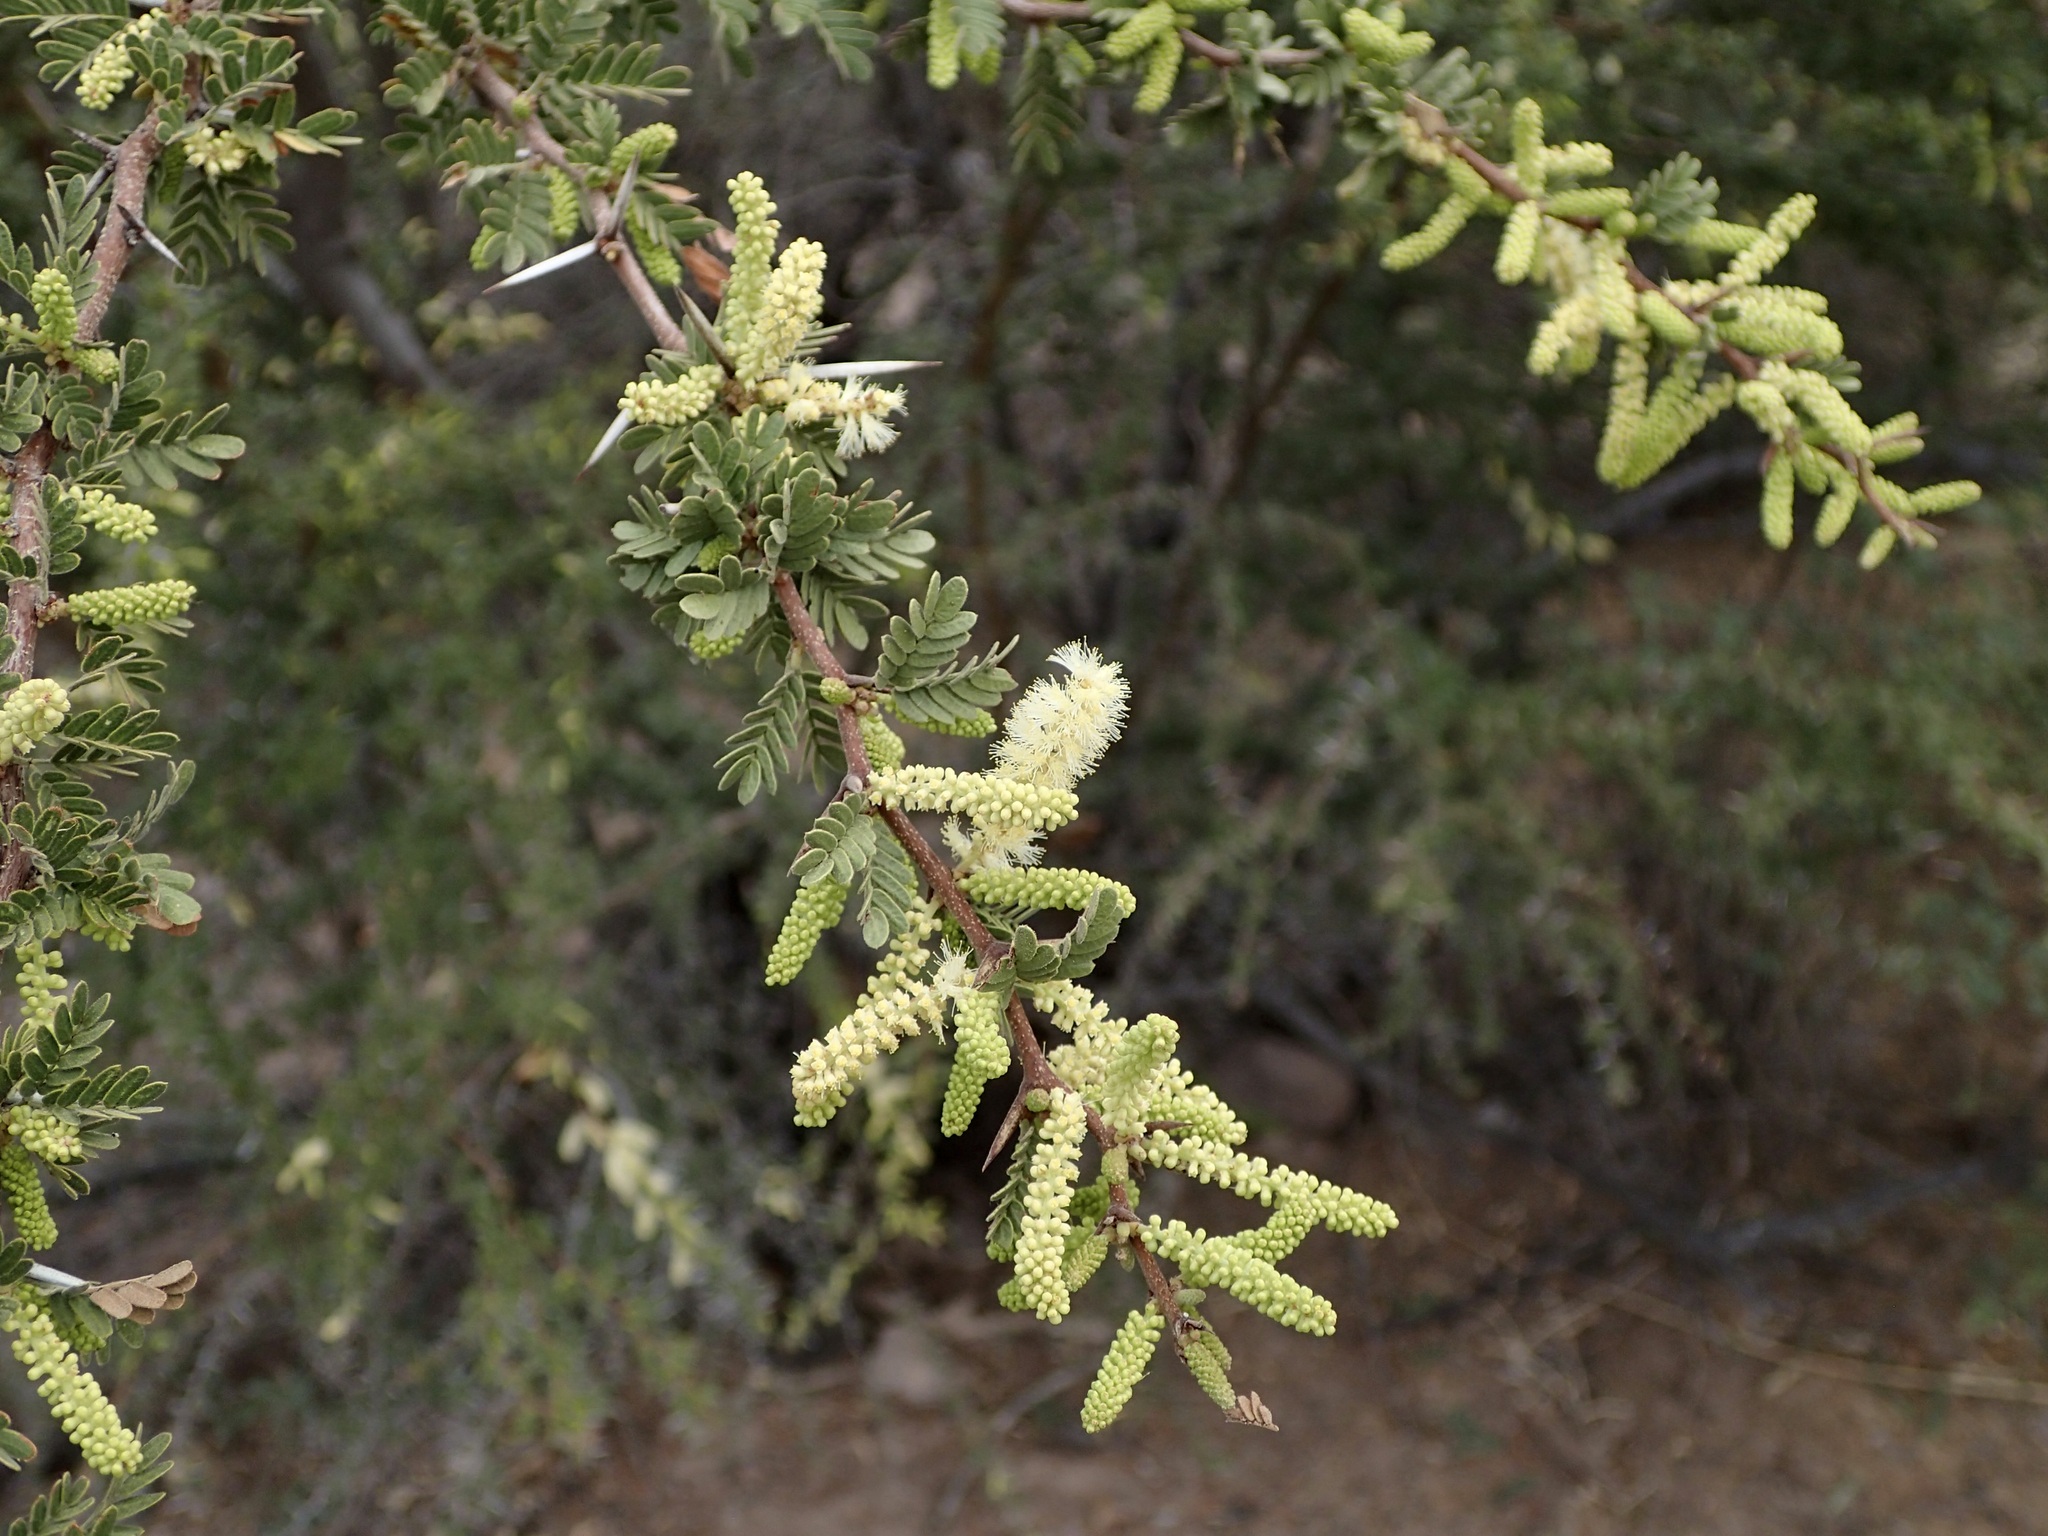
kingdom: Plantae
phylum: Tracheophyta
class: Magnoliopsida
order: Fabales
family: Fabaceae
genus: Vachellia
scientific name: Vachellia brandegeana
